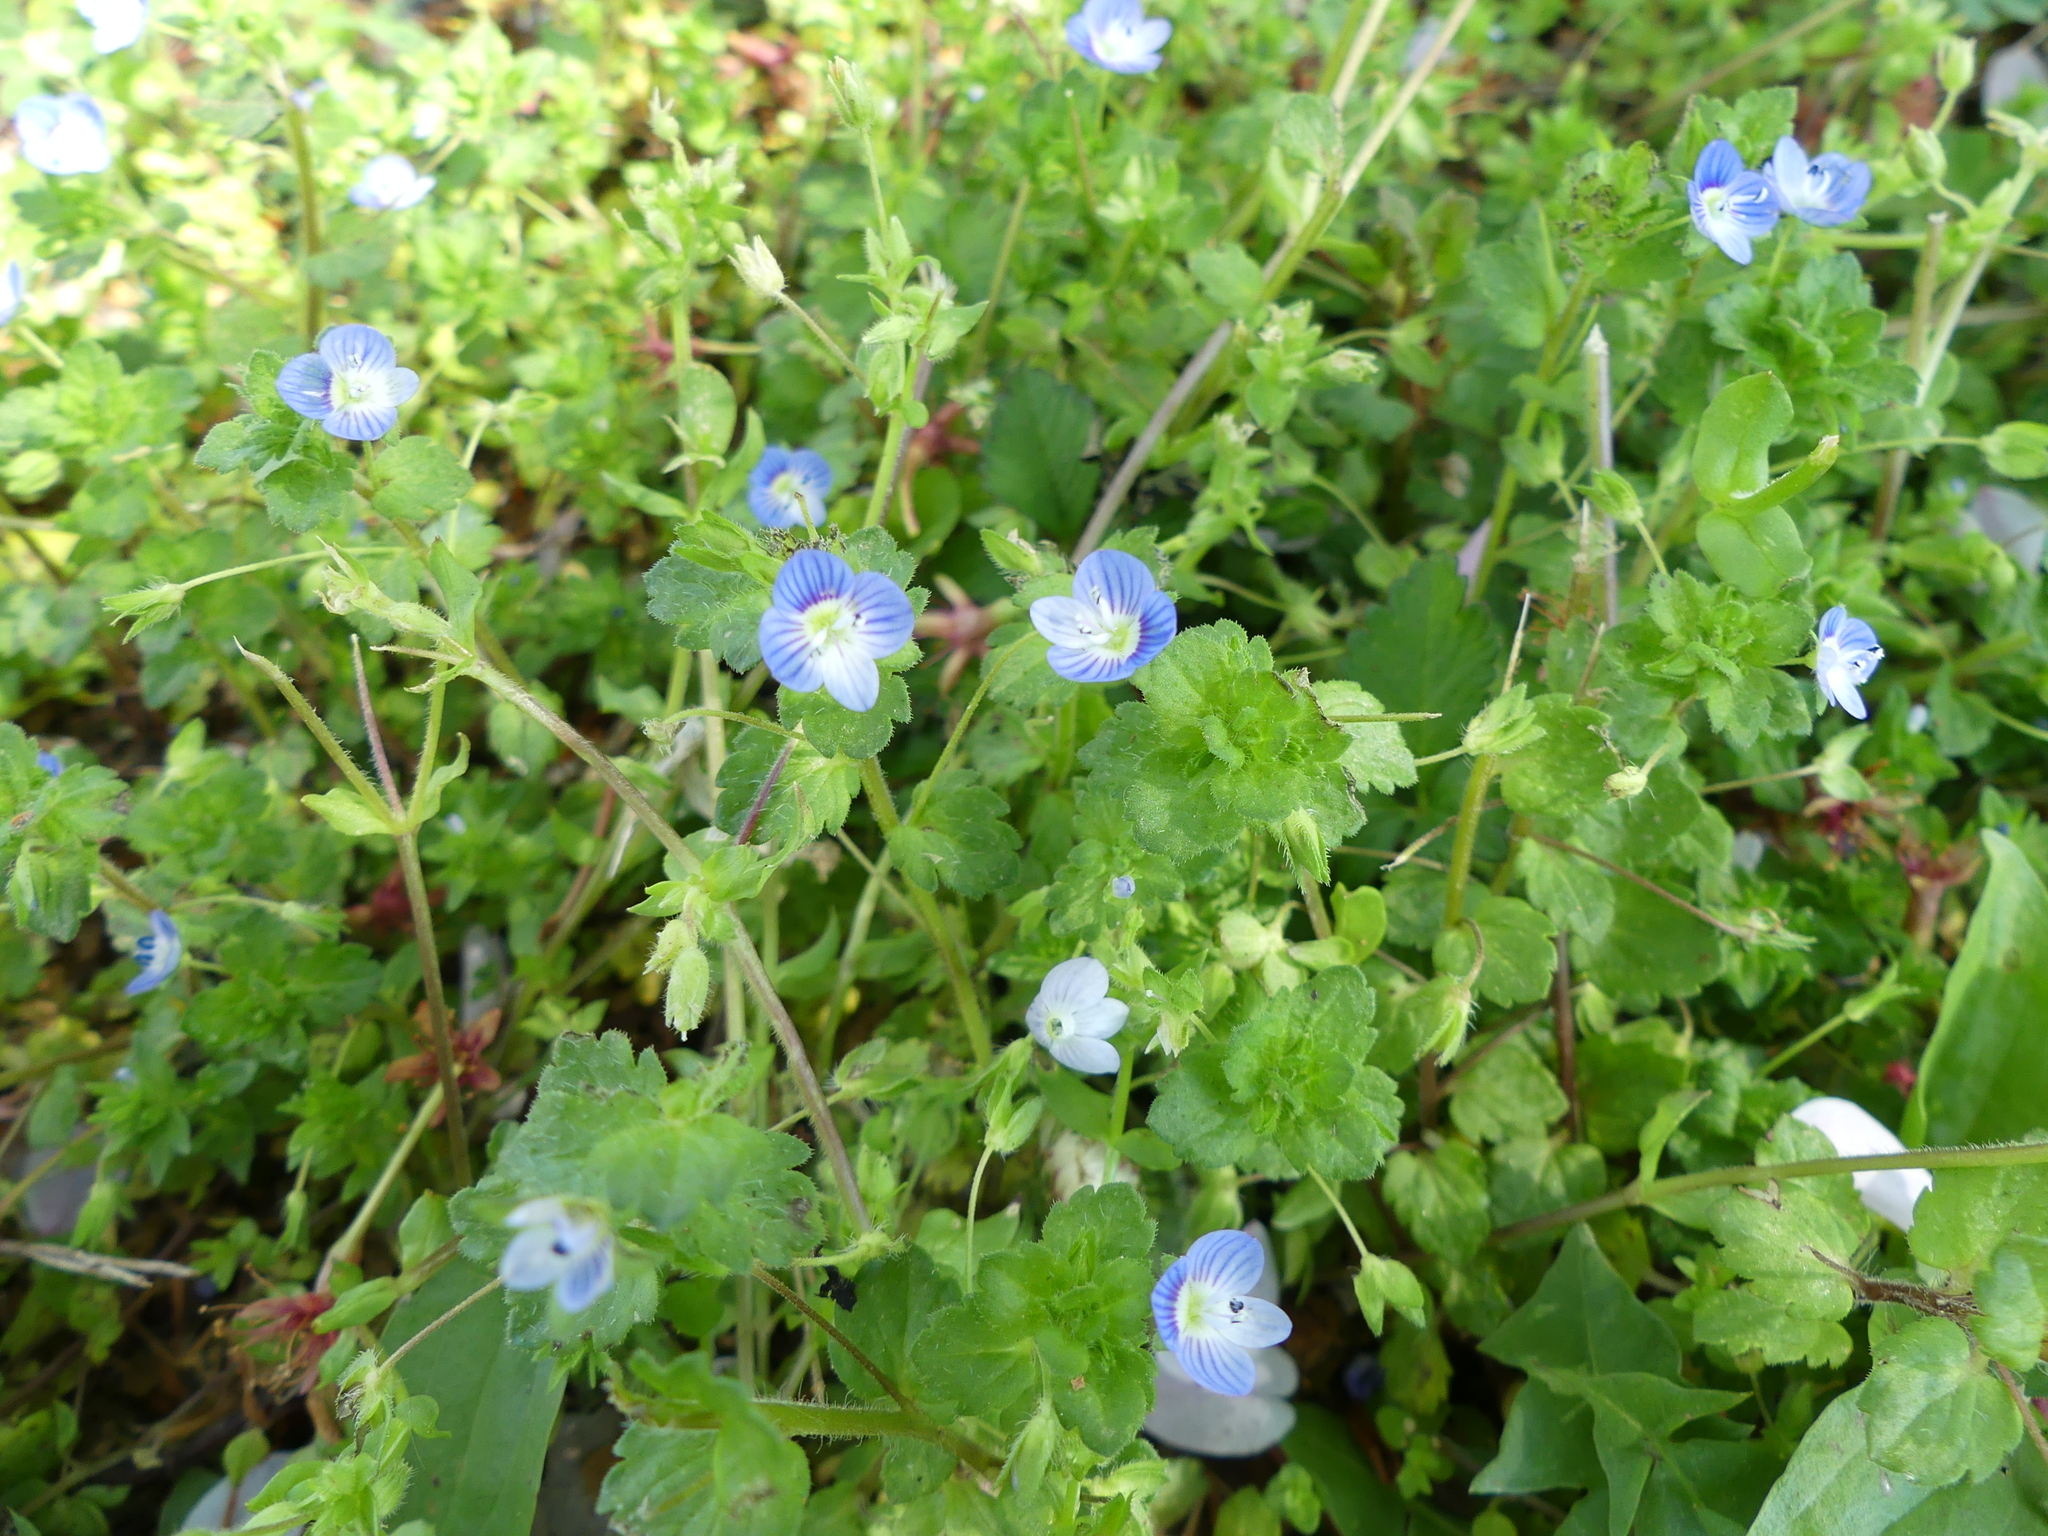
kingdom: Plantae
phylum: Tracheophyta
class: Magnoliopsida
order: Lamiales
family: Plantaginaceae
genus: Veronica
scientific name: Veronica persica
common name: Common field-speedwell
